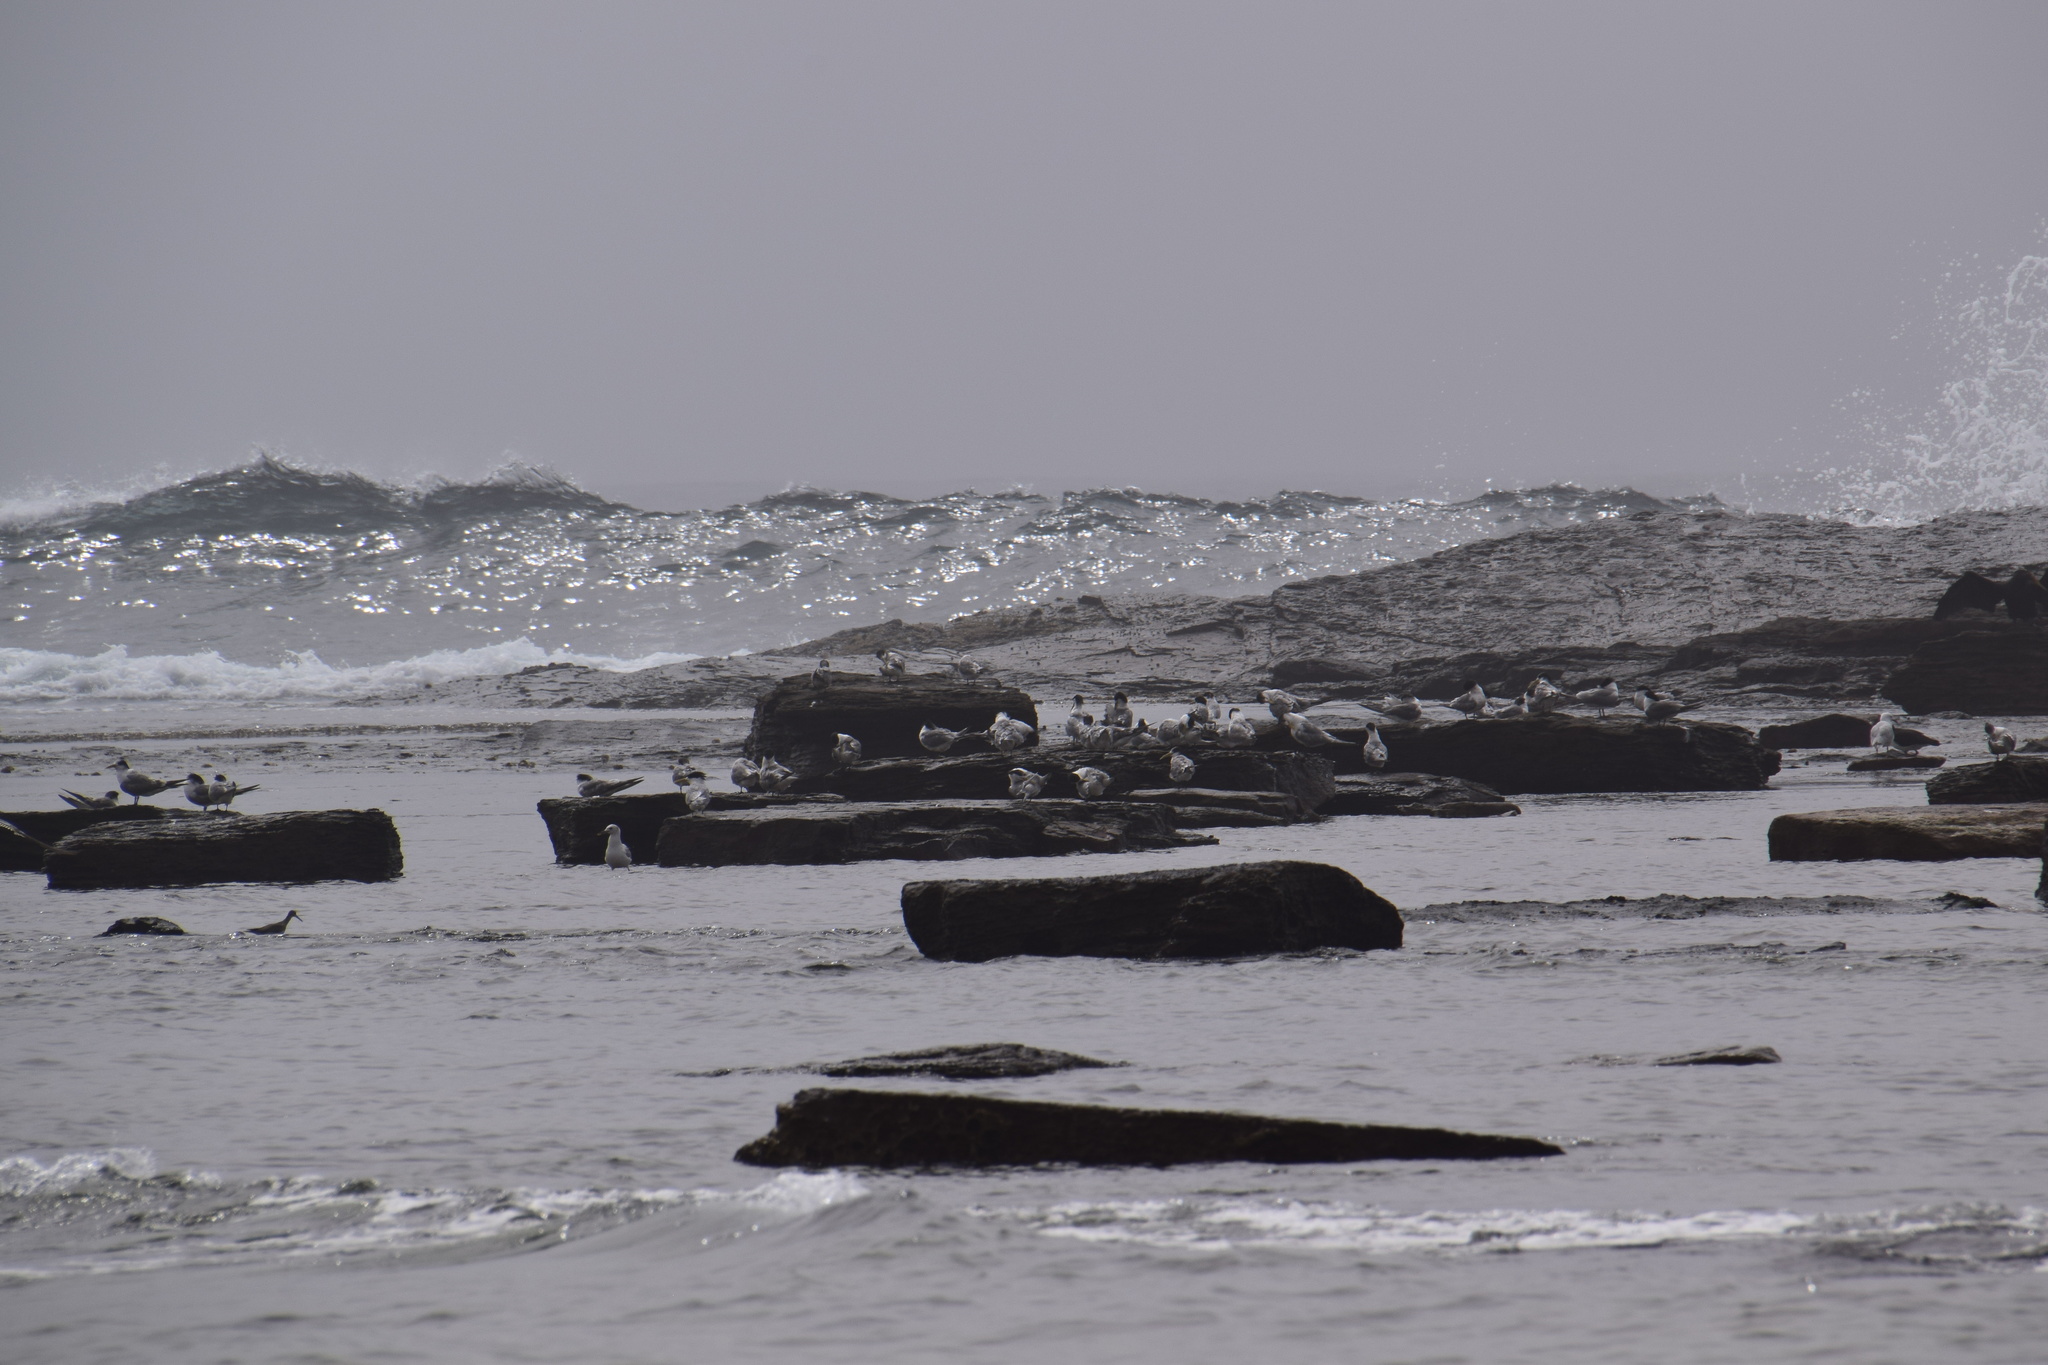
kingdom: Animalia
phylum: Chordata
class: Aves
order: Charadriiformes
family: Laridae
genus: Thalasseus
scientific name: Thalasseus bergii
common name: Greater crested tern
